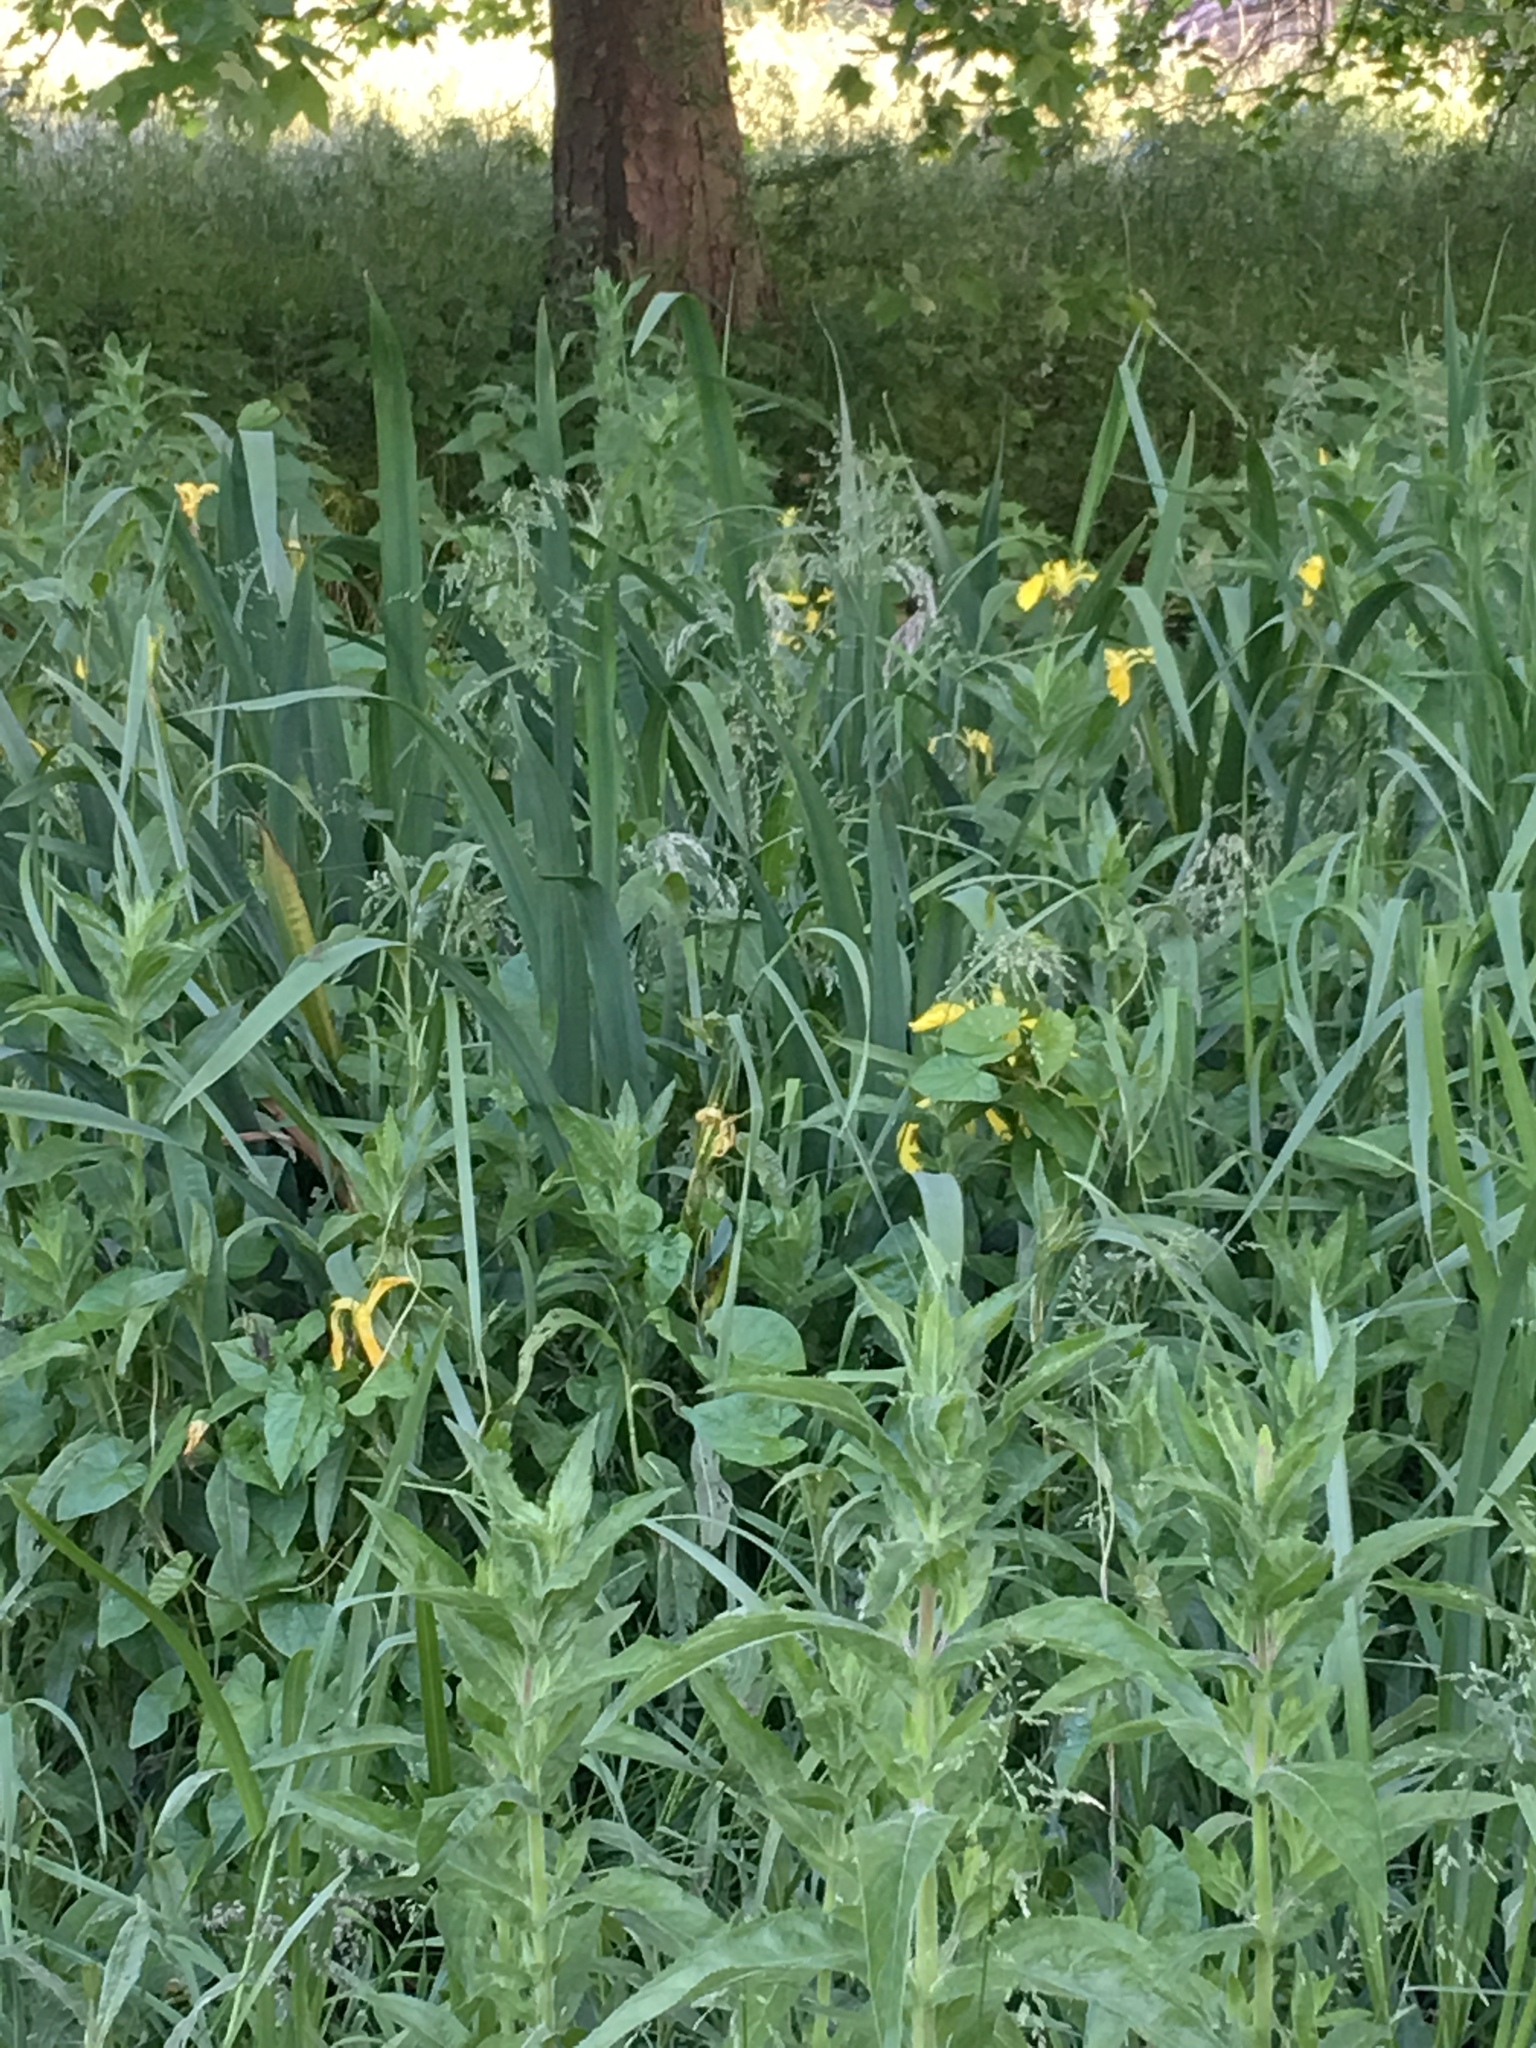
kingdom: Plantae
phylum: Tracheophyta
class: Liliopsida
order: Asparagales
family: Iridaceae
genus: Iris
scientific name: Iris pseudacorus
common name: Yellow flag
